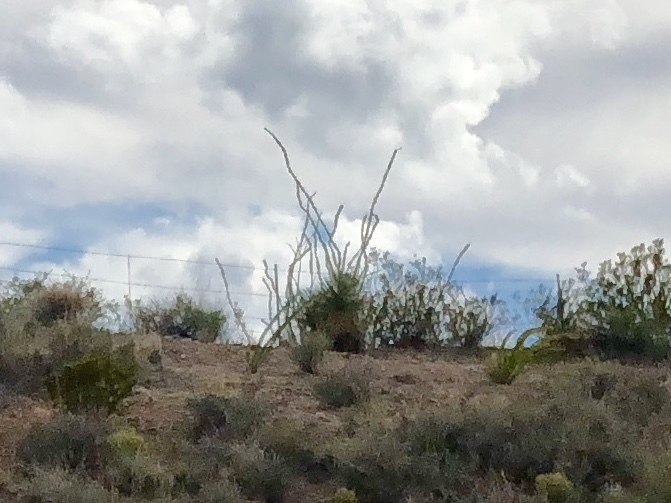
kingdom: Plantae
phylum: Tracheophyta
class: Magnoliopsida
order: Ericales
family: Fouquieriaceae
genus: Fouquieria
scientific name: Fouquieria splendens
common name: Vine-cactus
